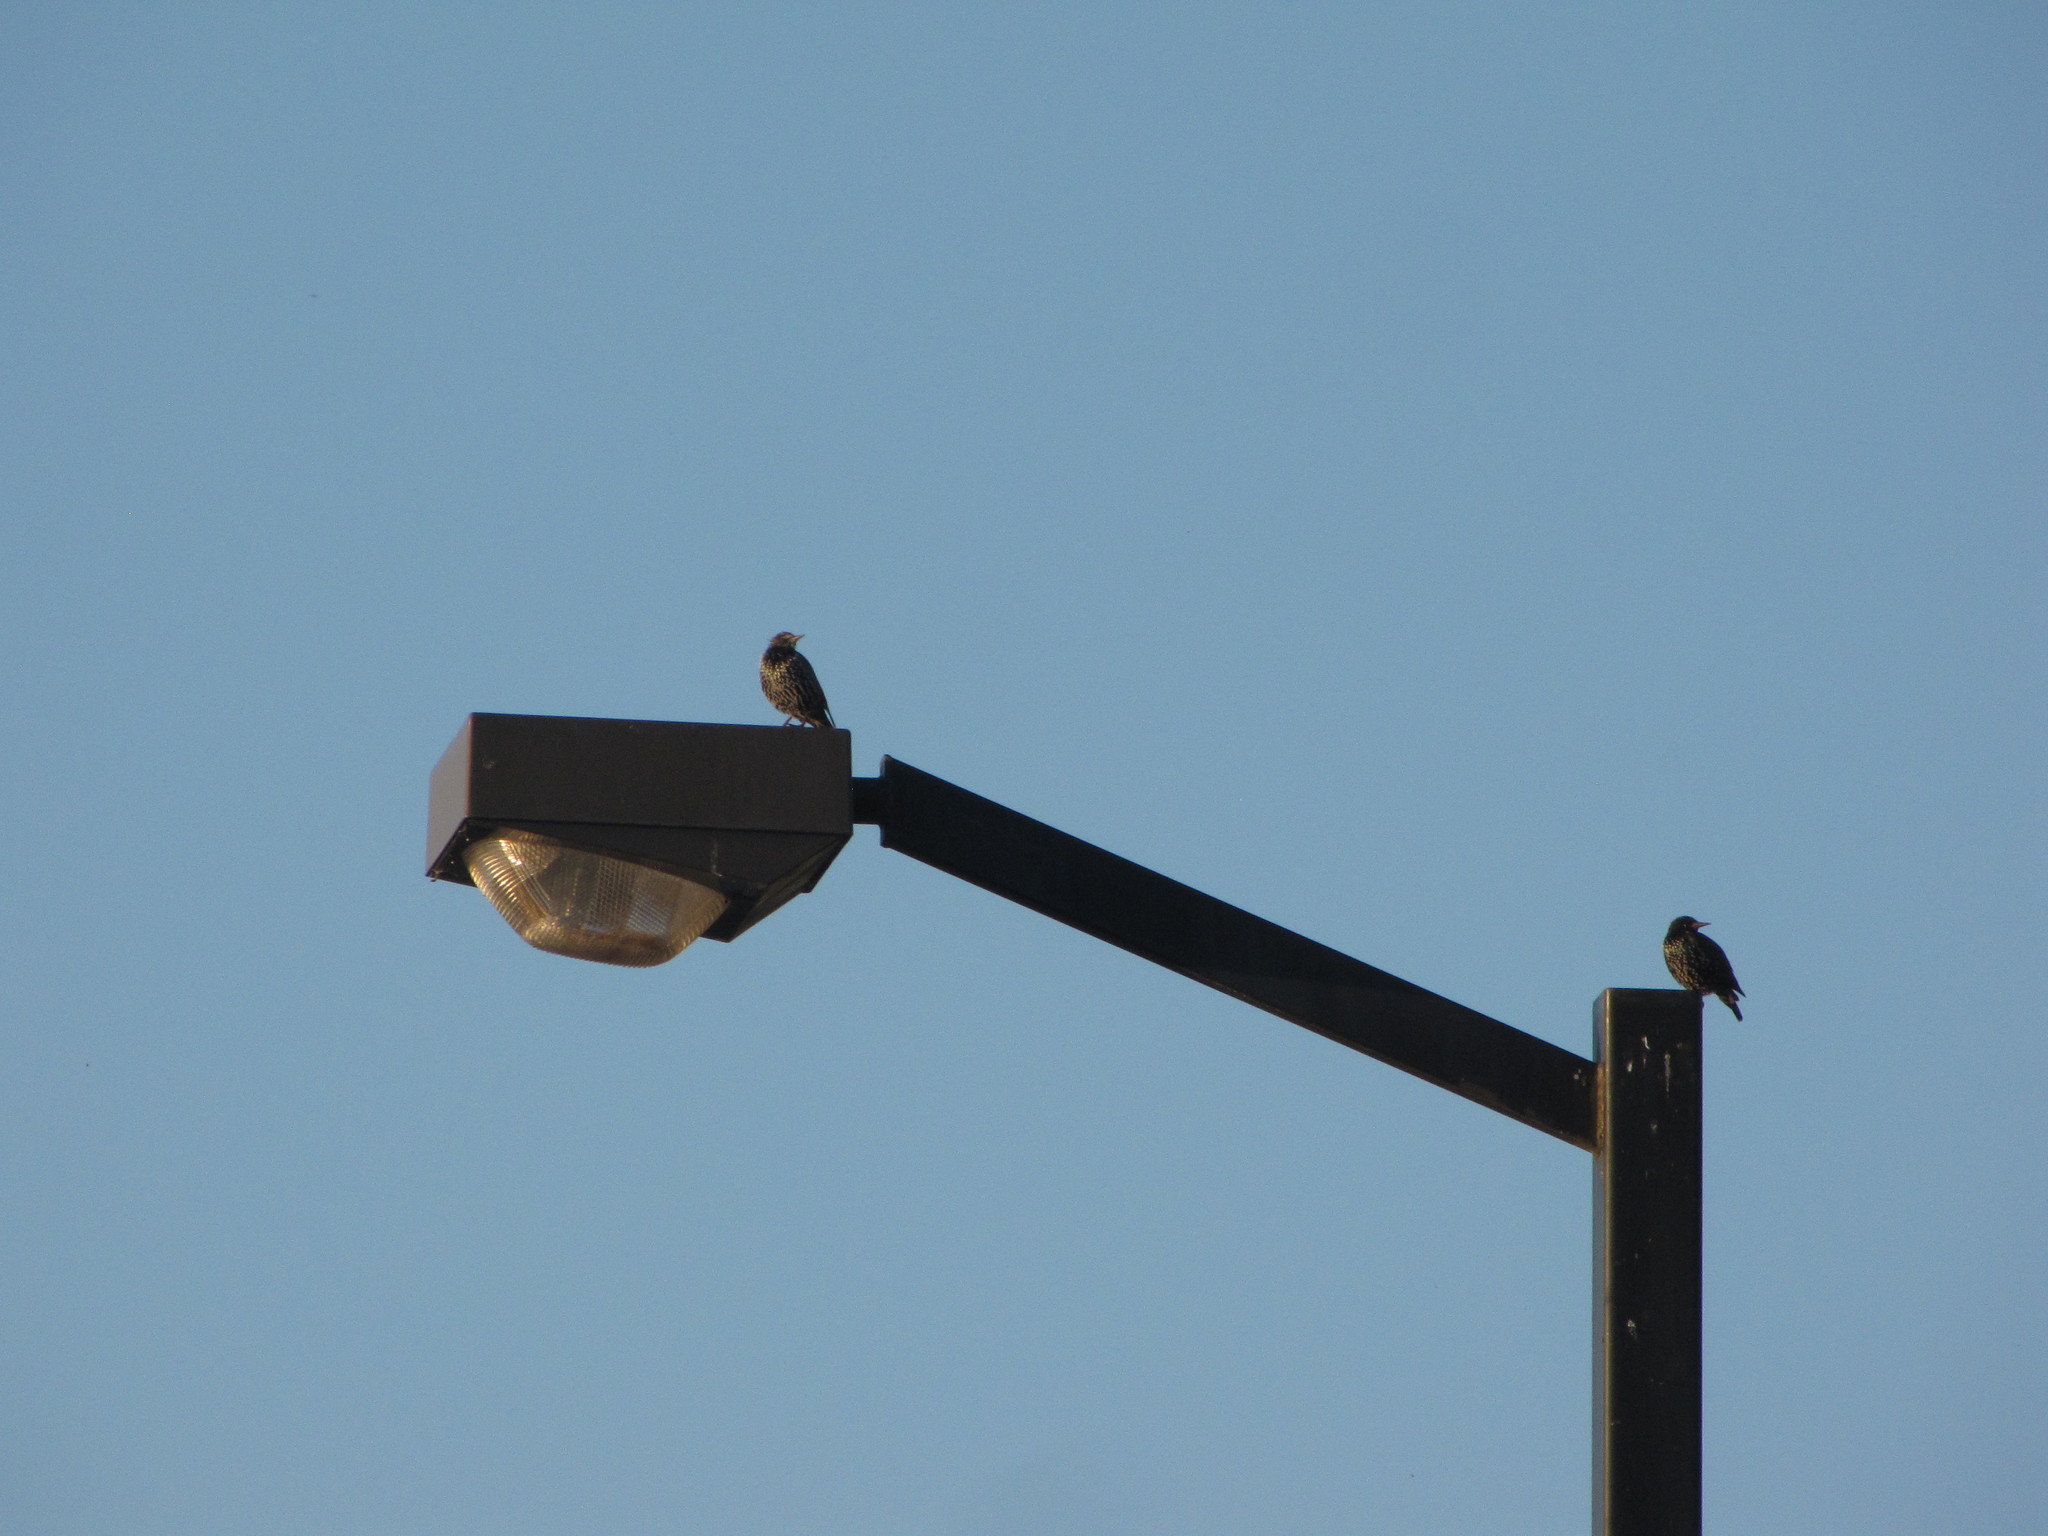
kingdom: Animalia
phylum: Chordata
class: Aves
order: Passeriformes
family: Sturnidae
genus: Sturnus
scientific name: Sturnus vulgaris
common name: Common starling
